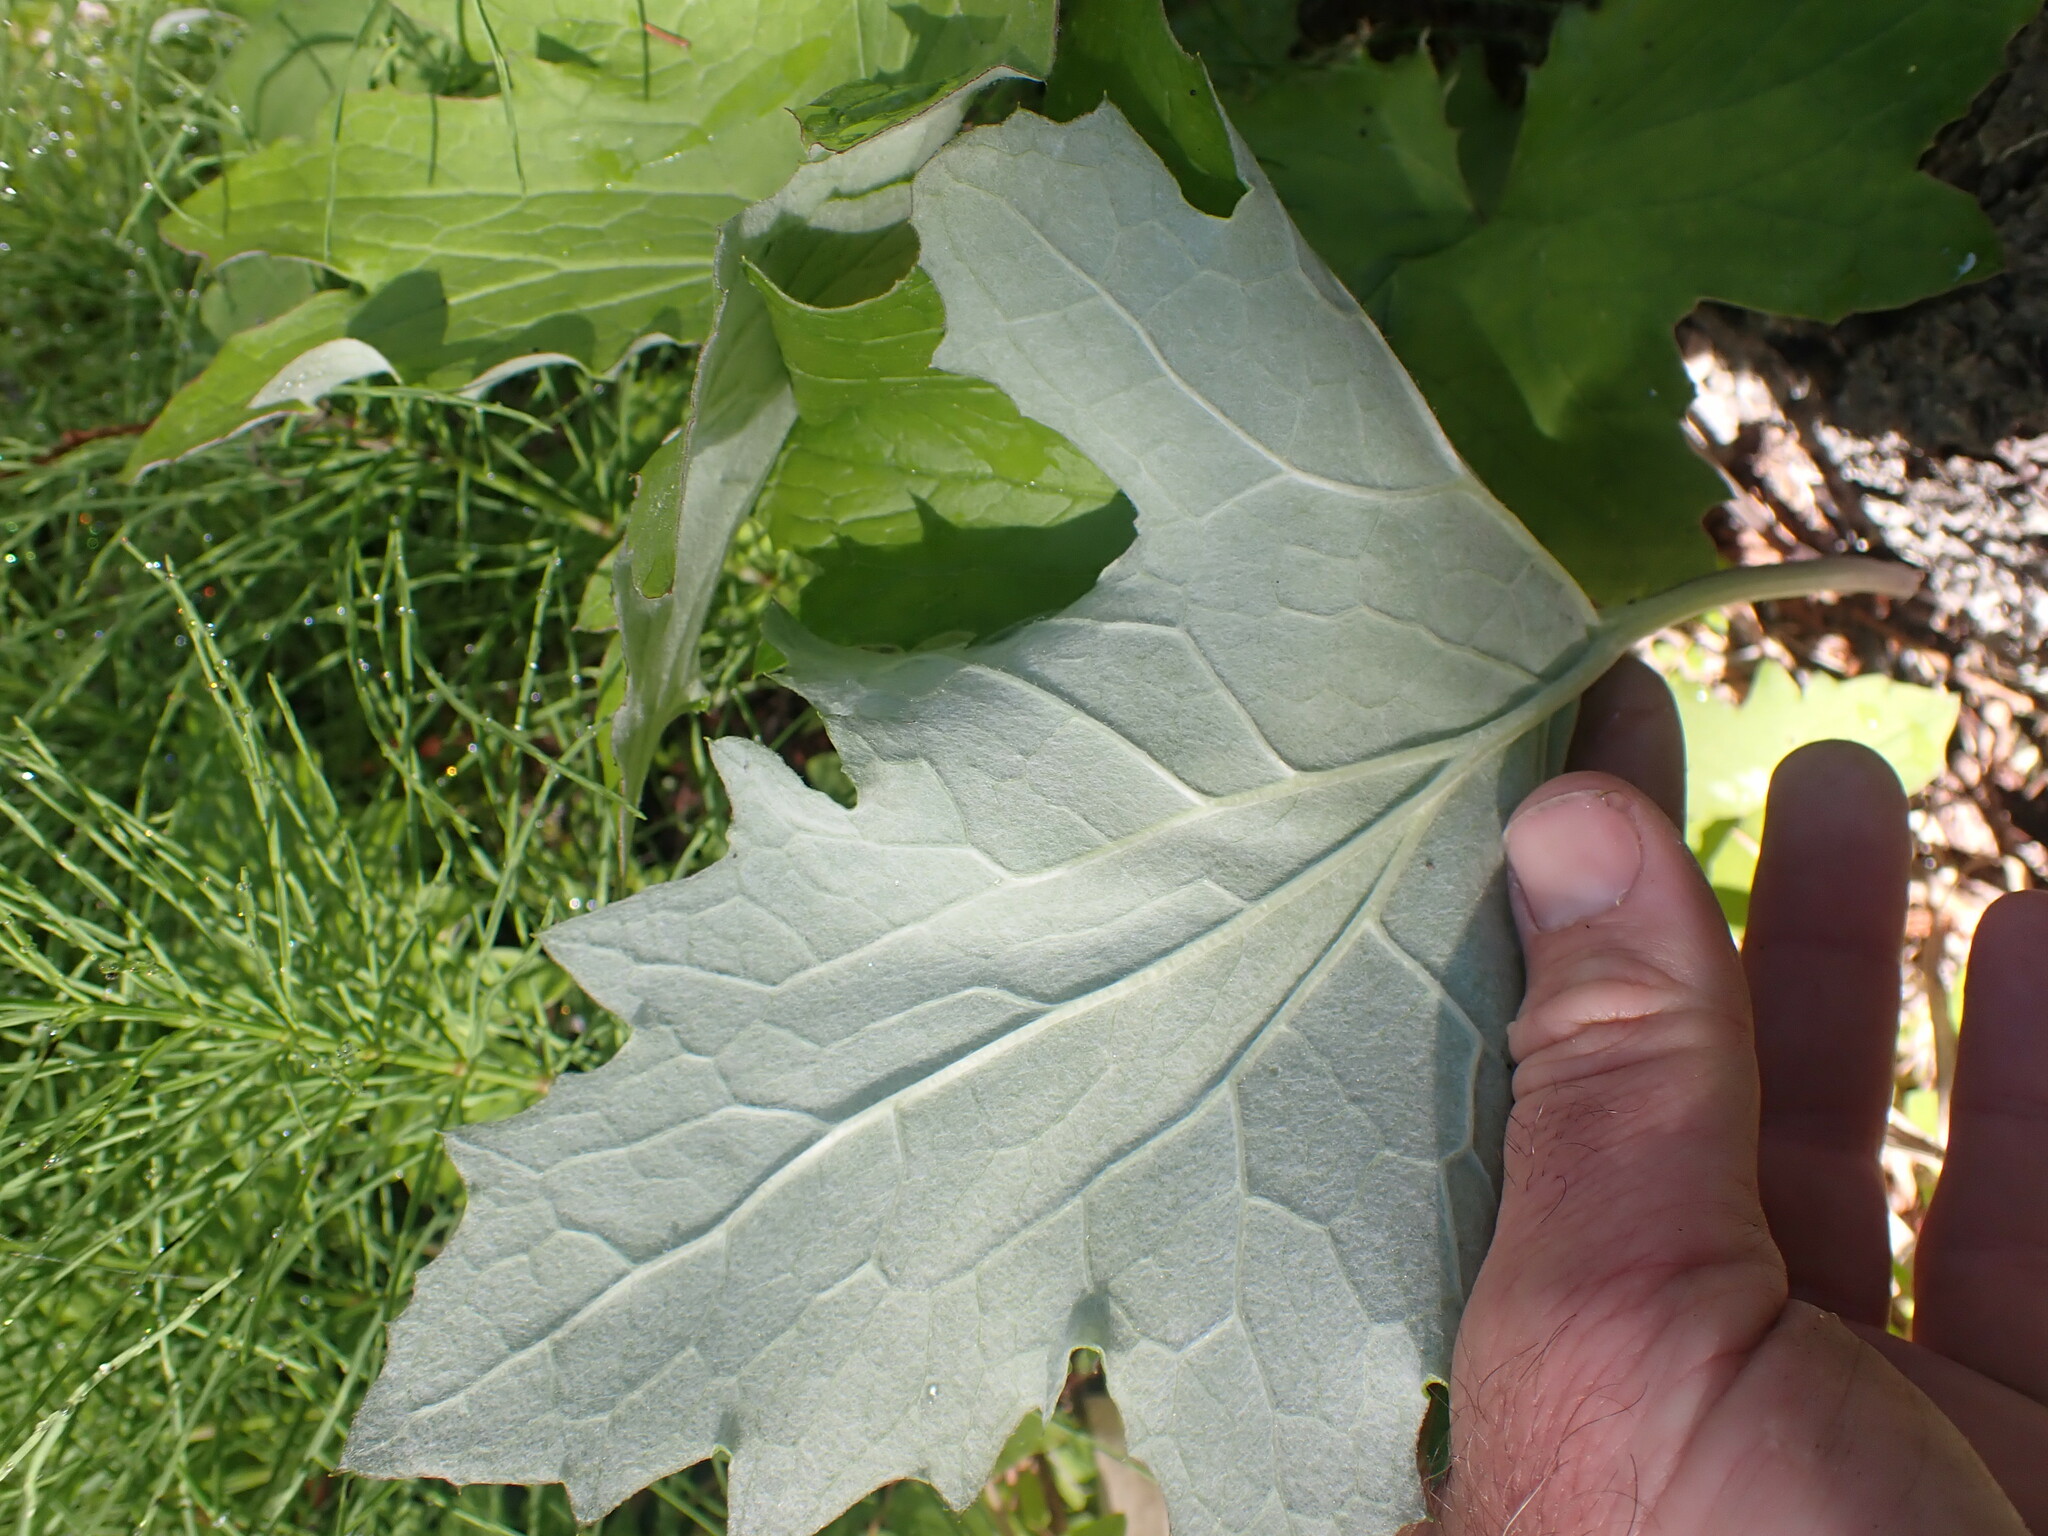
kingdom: Plantae
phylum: Tracheophyta
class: Magnoliopsida
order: Asterales
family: Asteraceae
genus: Petasites
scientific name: Petasites frigidus
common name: Arctic butterbur
